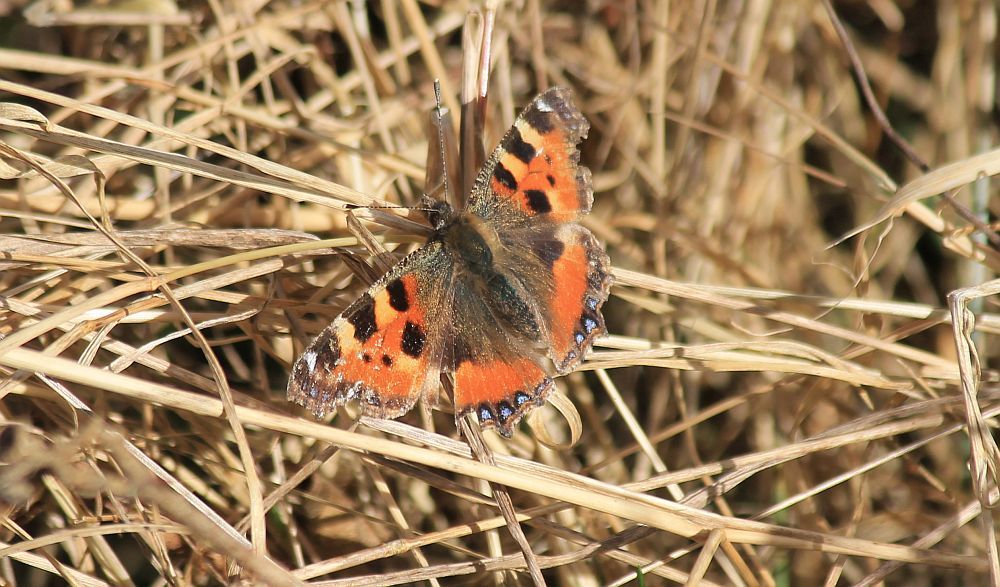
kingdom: Animalia
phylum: Arthropoda
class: Insecta
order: Lepidoptera
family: Nymphalidae
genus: Aglais
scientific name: Aglais urticae
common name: Small tortoiseshell
